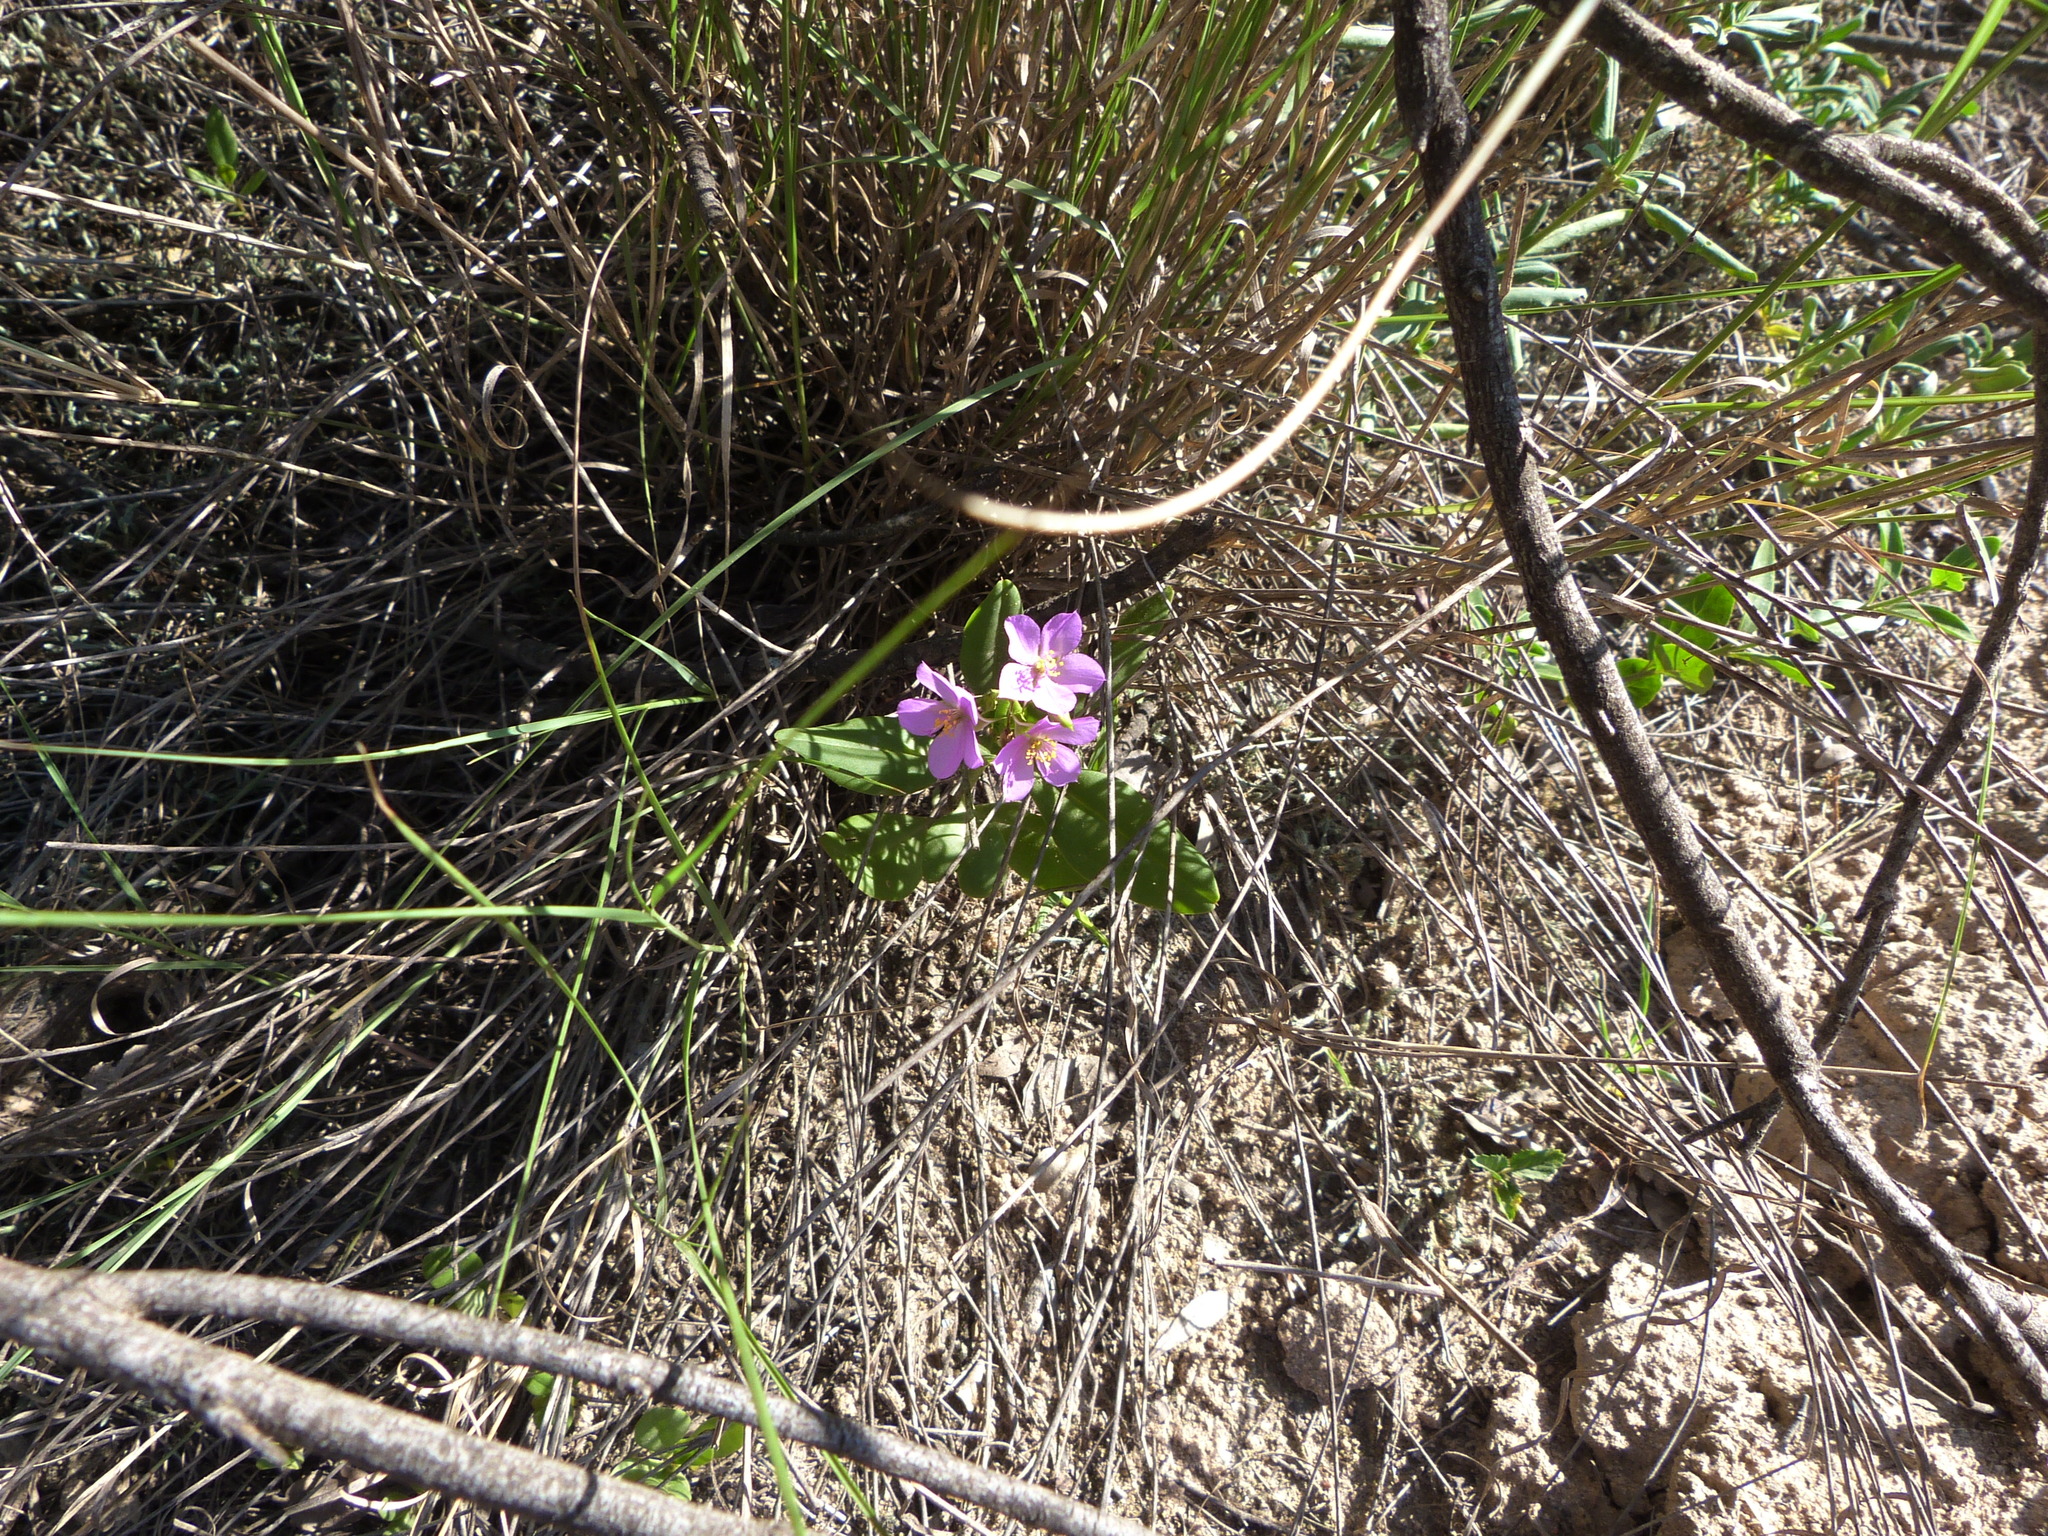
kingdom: Plantae
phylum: Tracheophyta
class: Magnoliopsida
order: Caryophyllales
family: Talinaceae
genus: Talinum
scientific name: Talinum fruticosum
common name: Verdolaga-francesa
